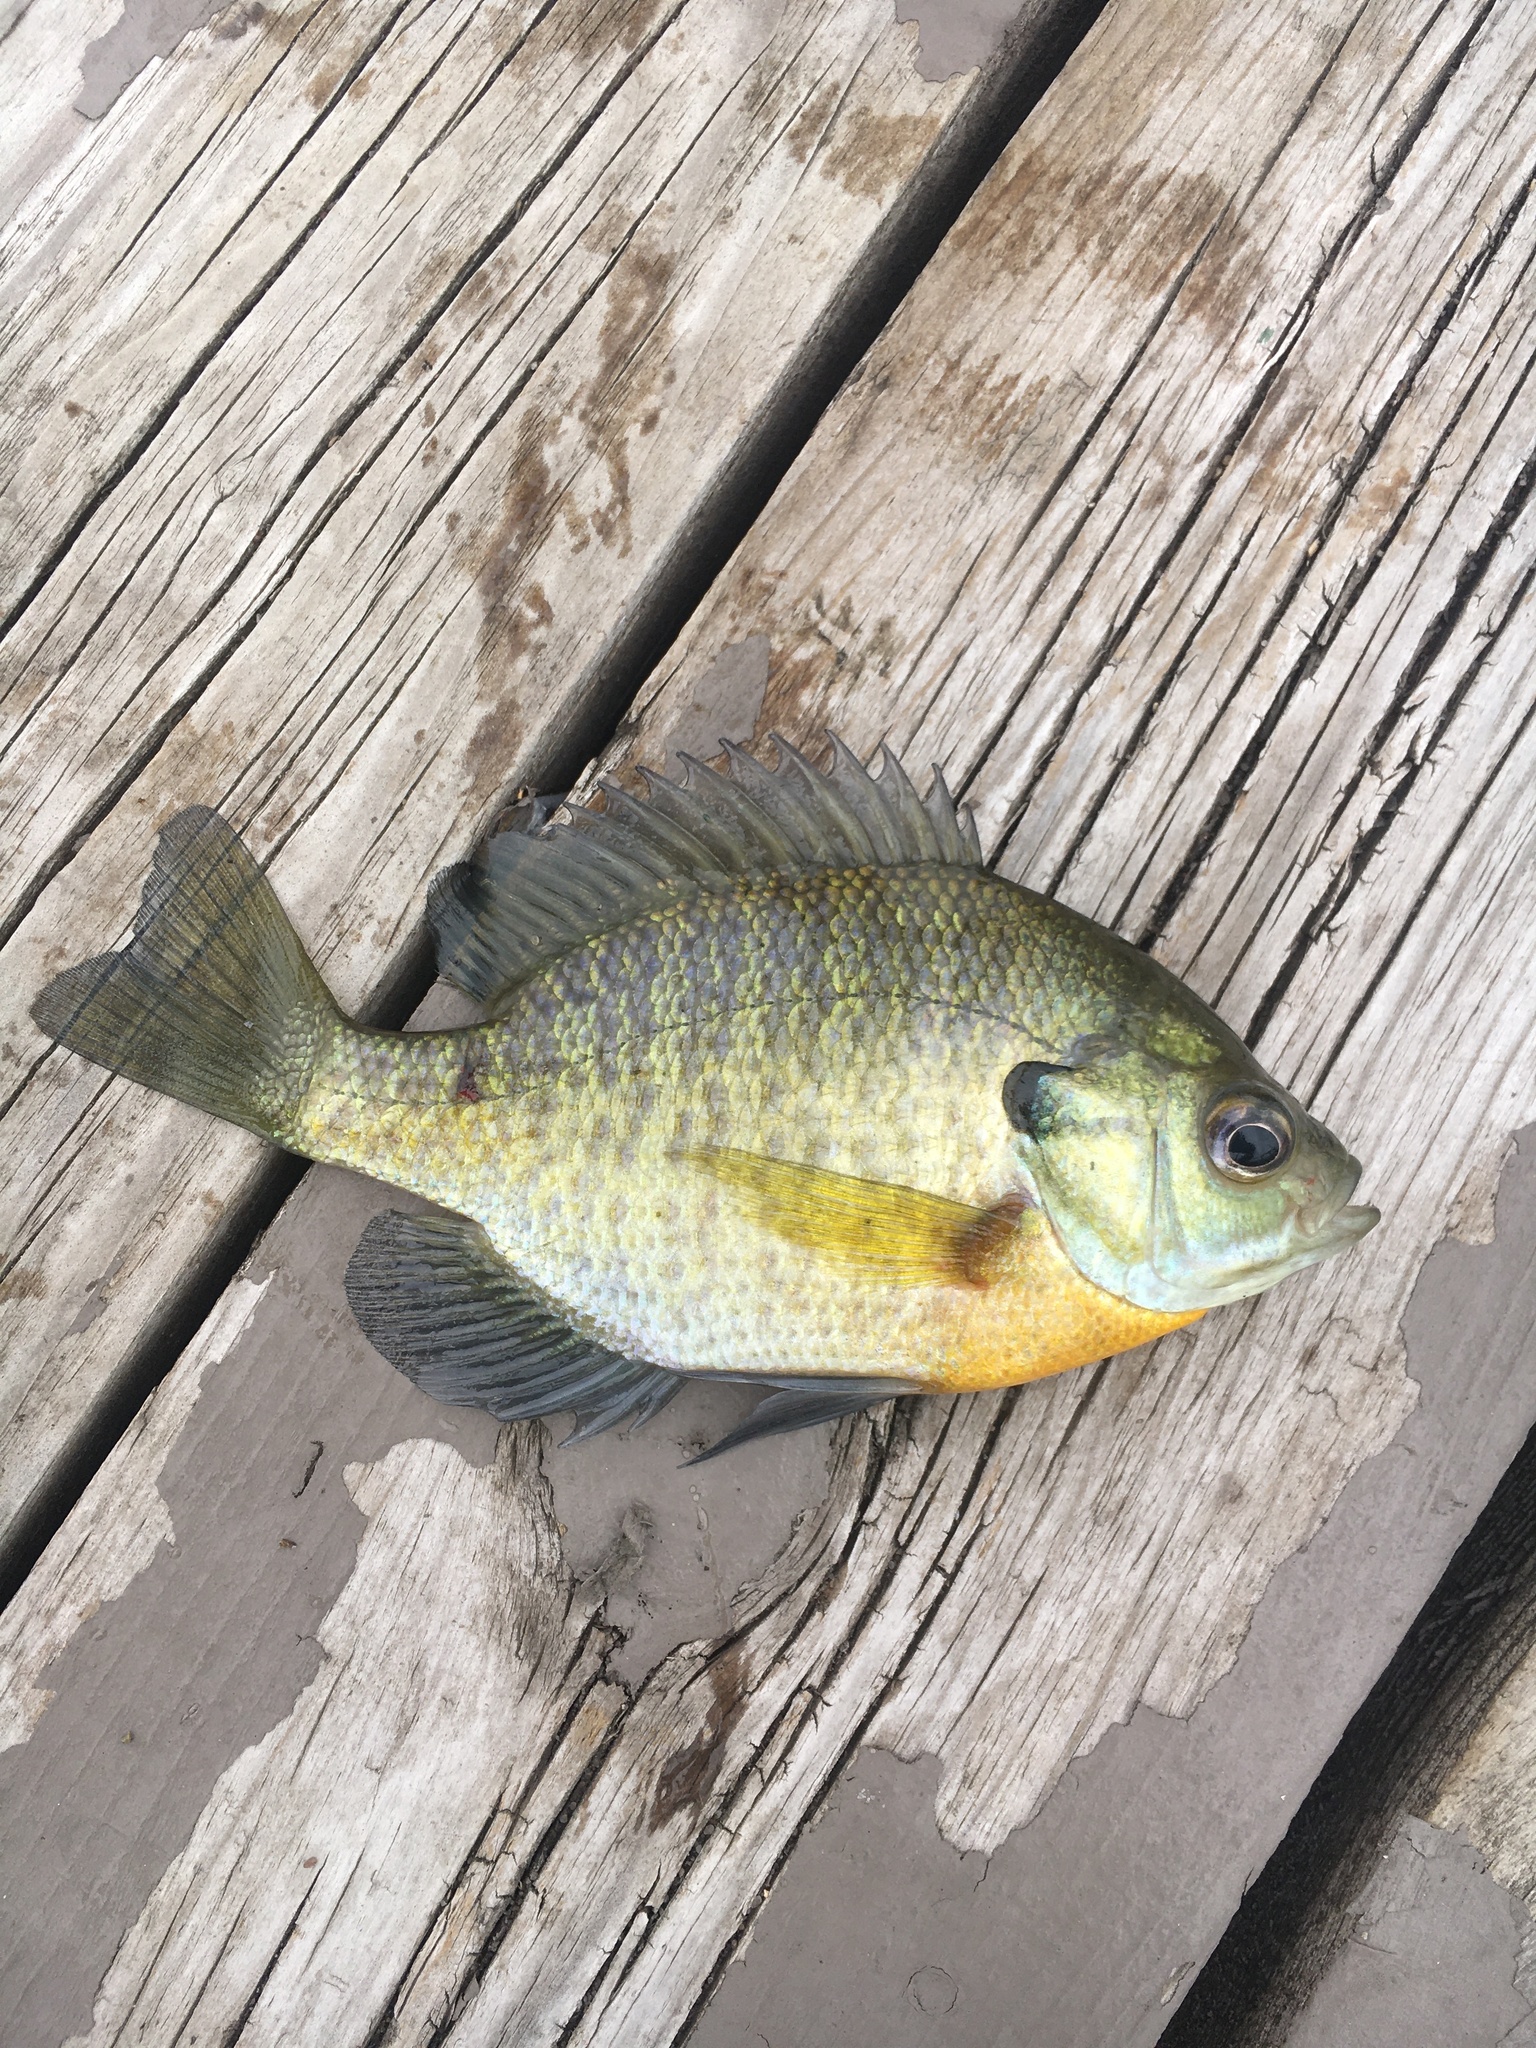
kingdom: Animalia
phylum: Chordata
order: Perciformes
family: Centrarchidae
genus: Lepomis
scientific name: Lepomis macrochirus
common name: Bluegill
